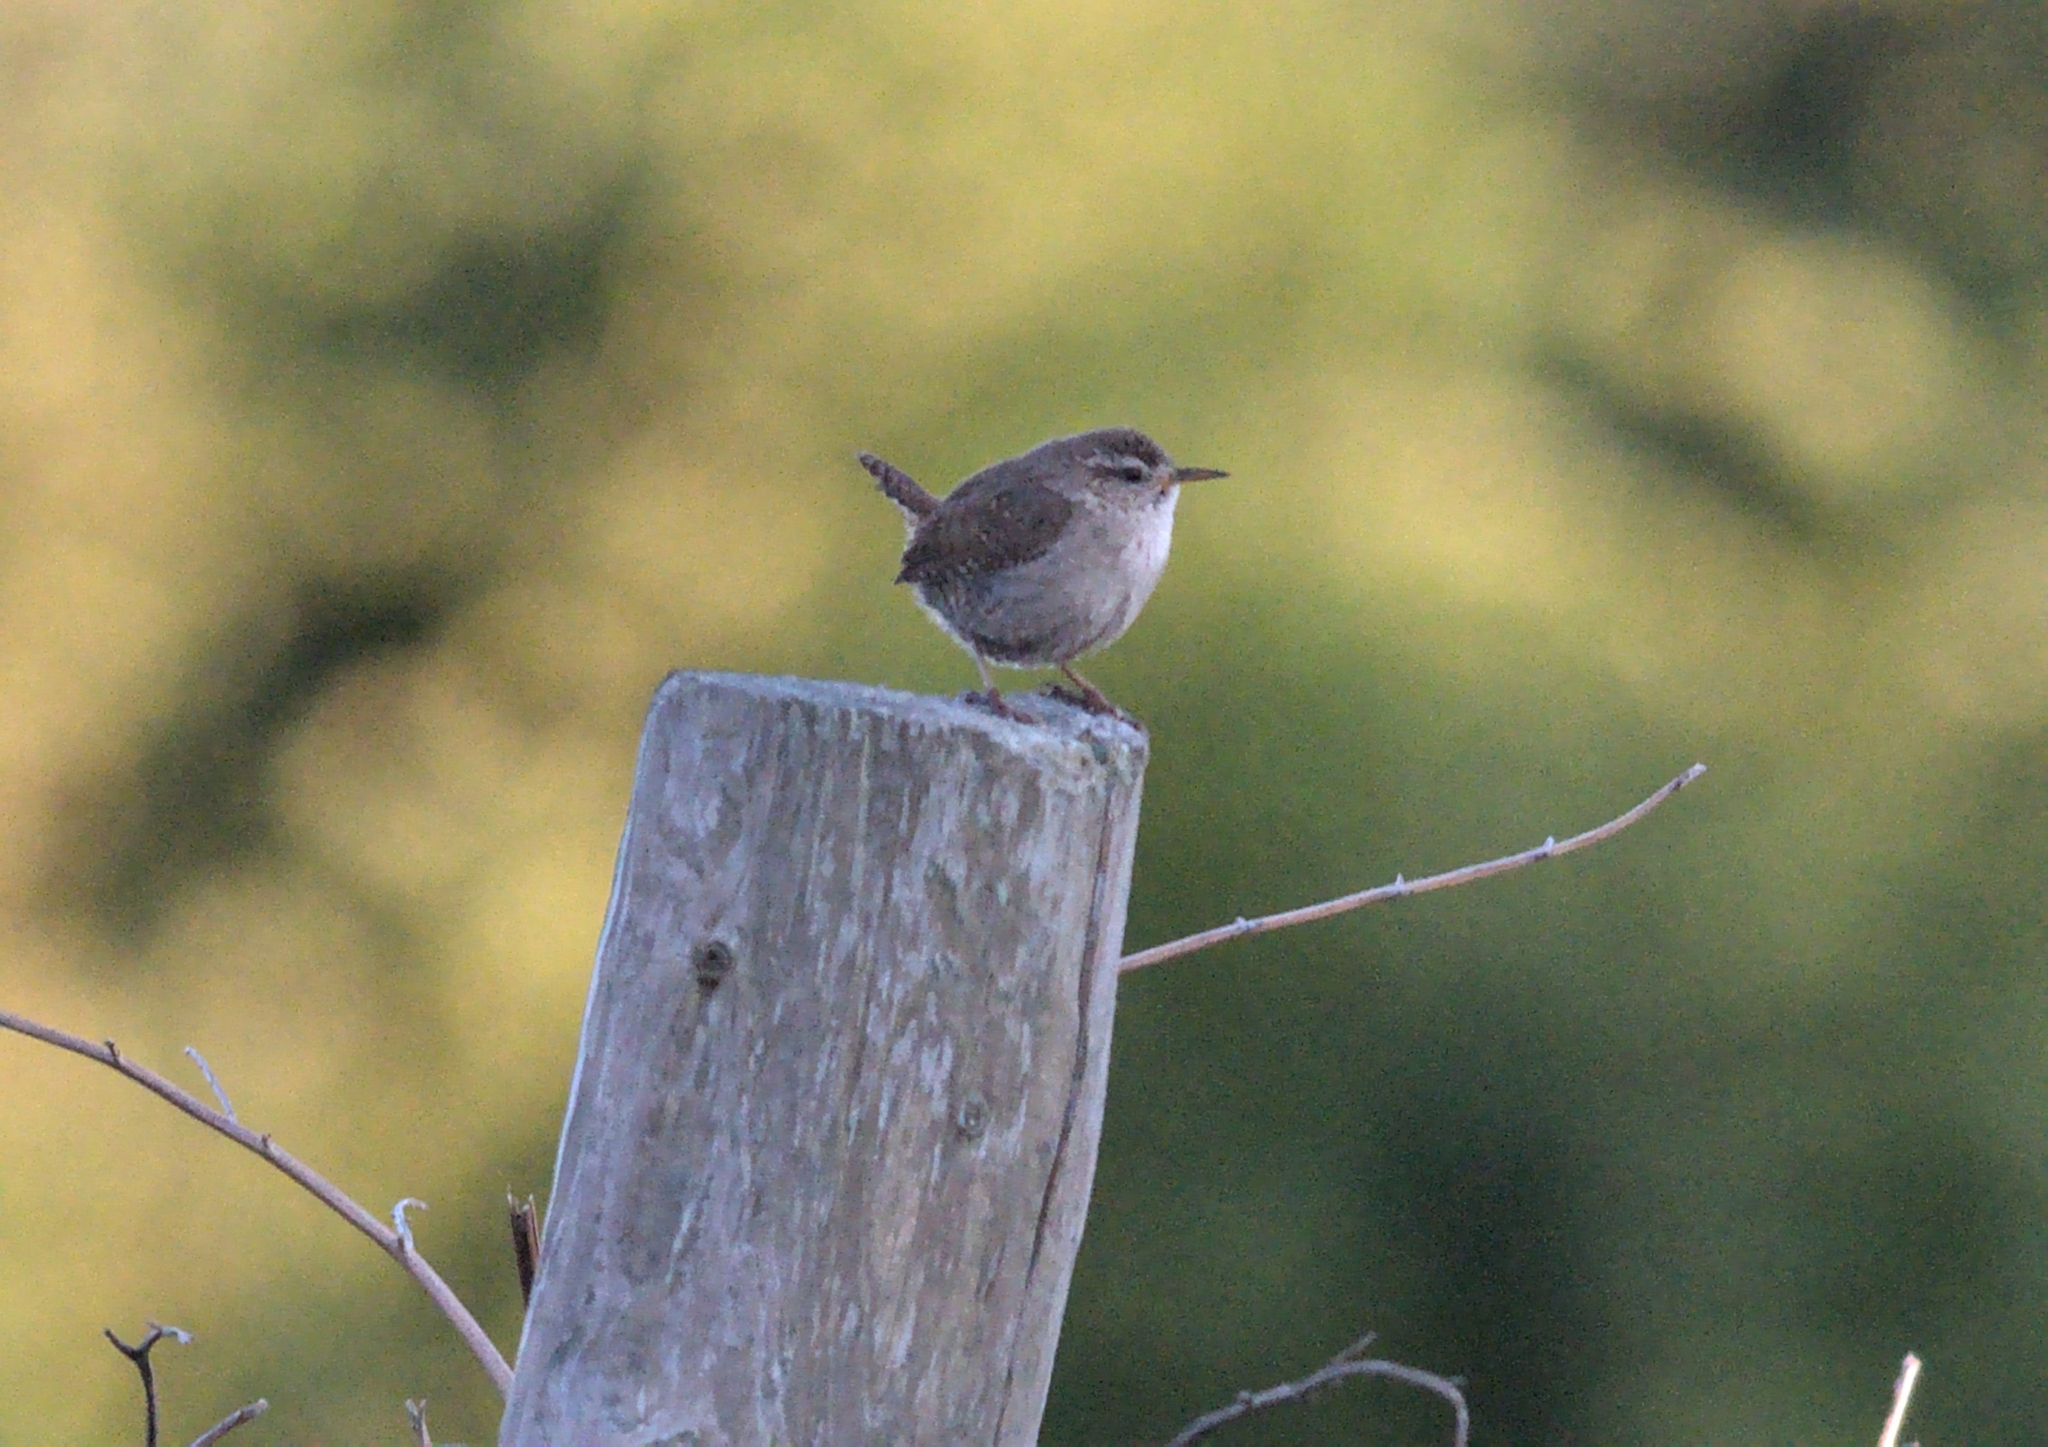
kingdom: Animalia
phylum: Chordata
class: Aves
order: Passeriformes
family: Troglodytidae
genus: Troglodytes
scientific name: Troglodytes troglodytes
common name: Eurasian wren
